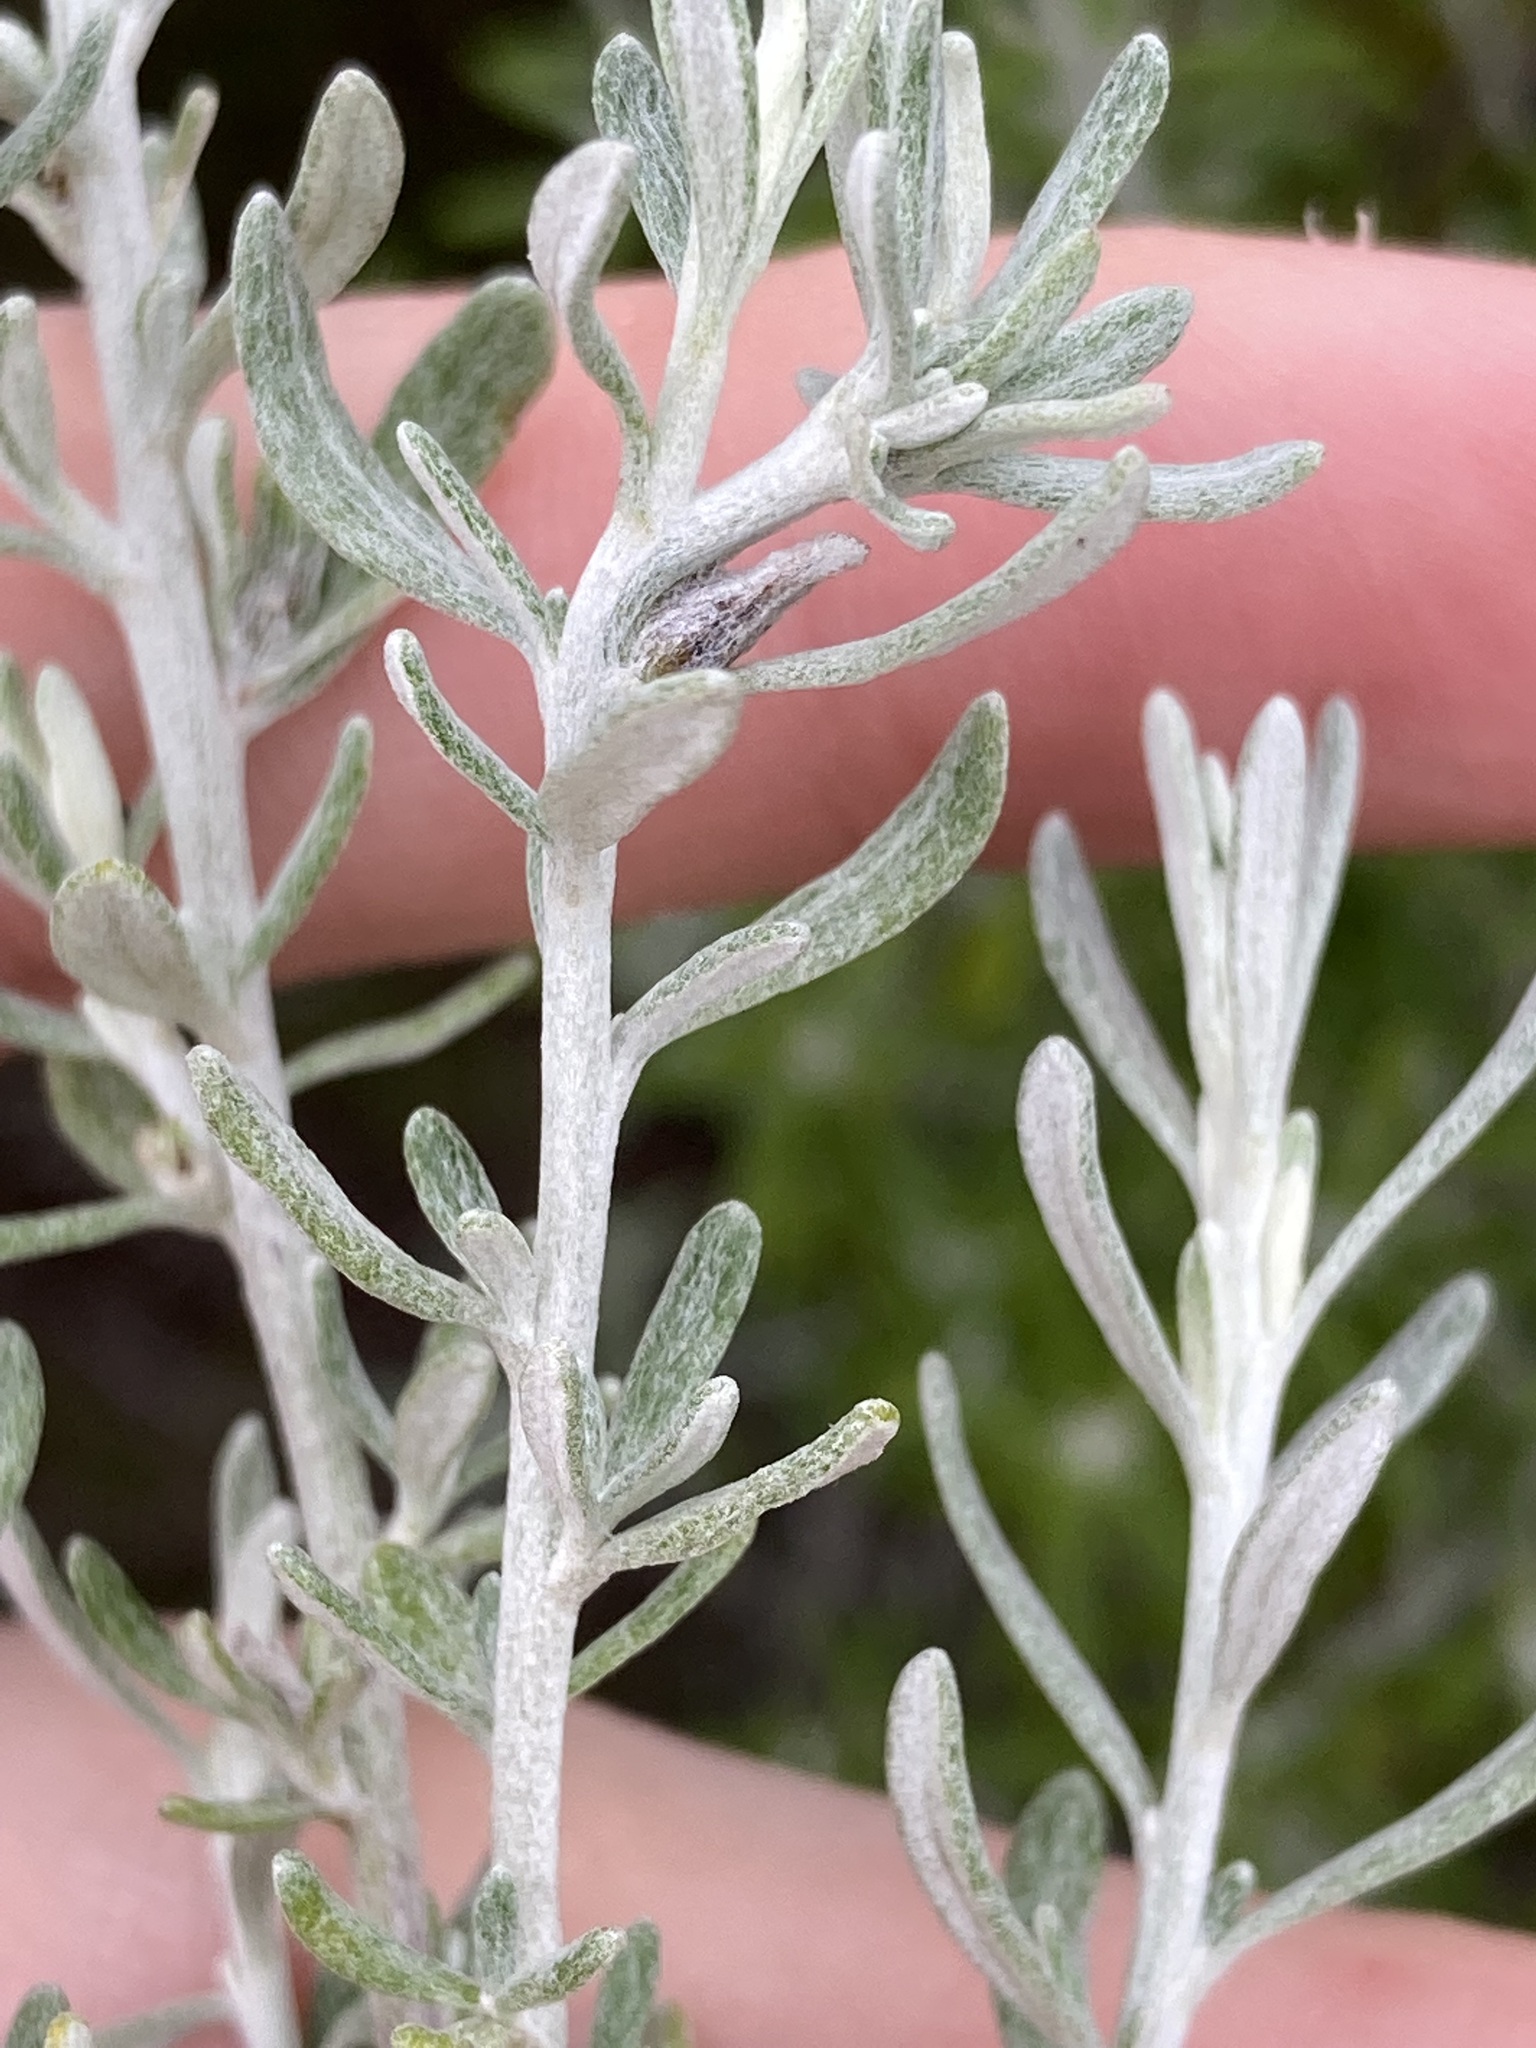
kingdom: Plantae
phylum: Tracheophyta
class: Magnoliopsida
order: Asterales
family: Asteraceae
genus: Olearia
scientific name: Olearia axillaris
